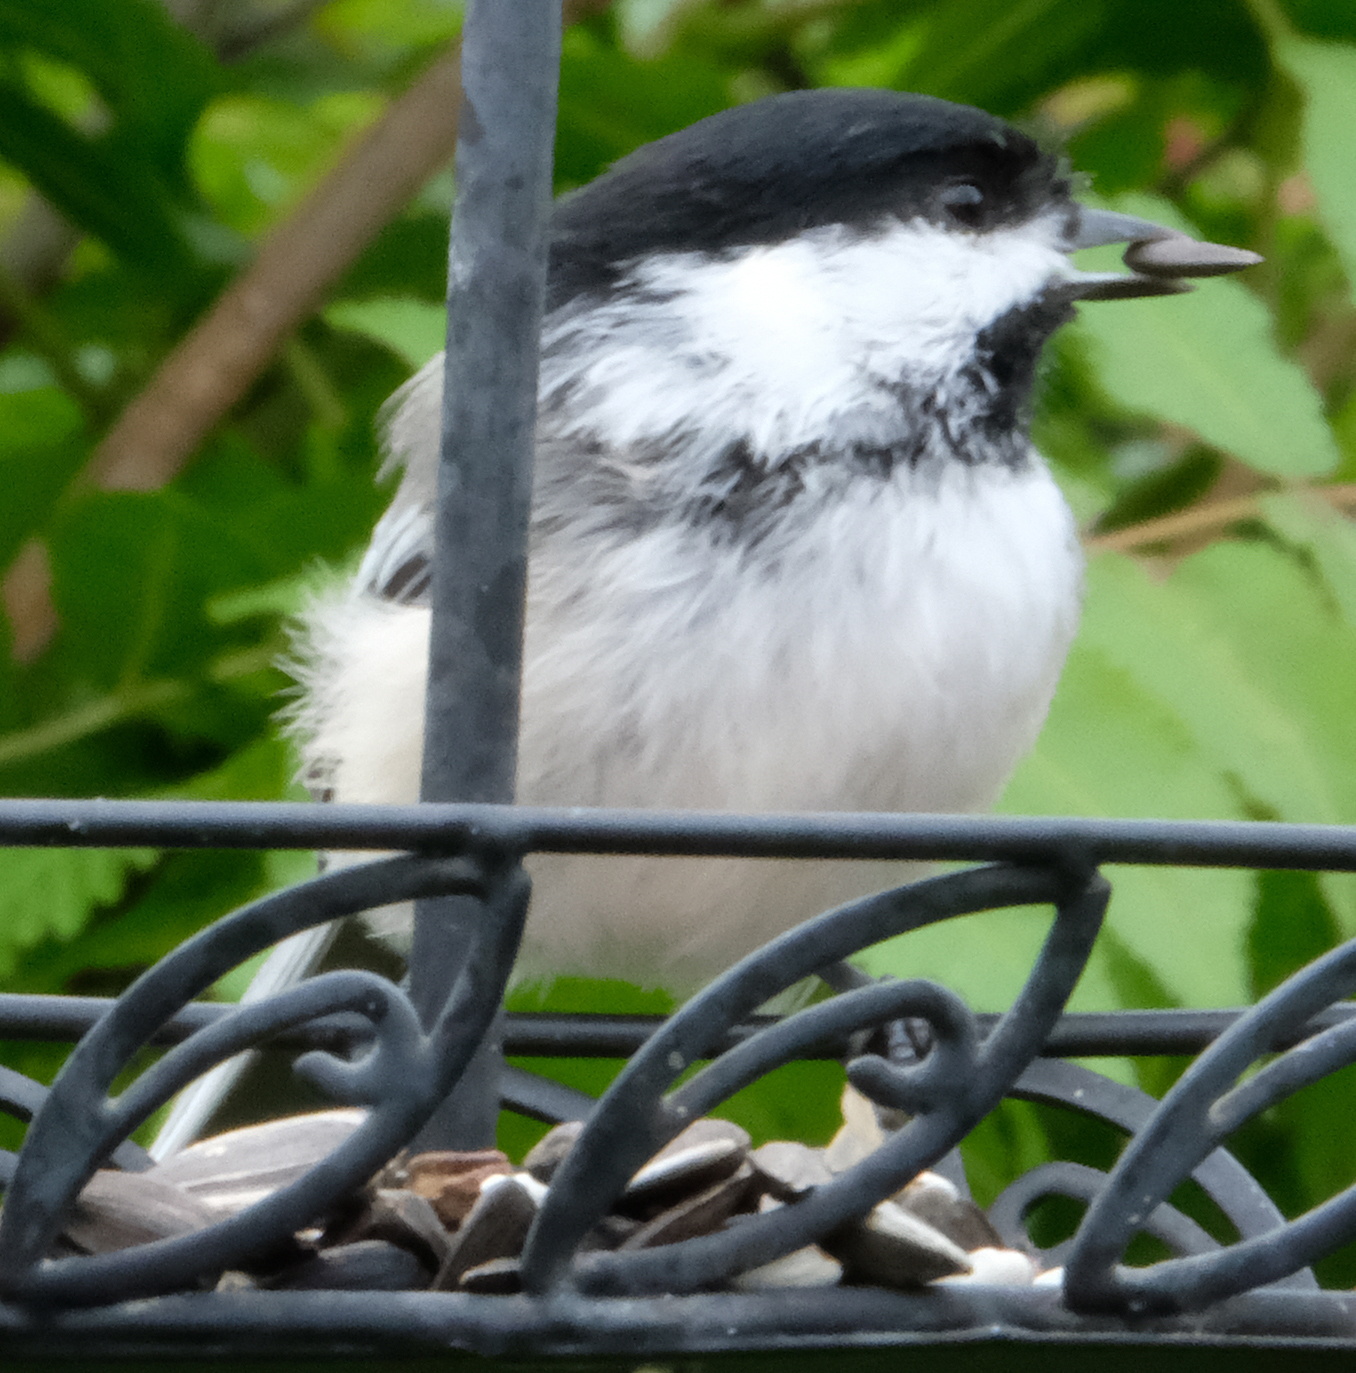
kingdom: Animalia
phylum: Chordata
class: Aves
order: Passeriformes
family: Paridae
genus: Poecile
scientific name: Poecile atricapillus
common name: Black-capped chickadee
